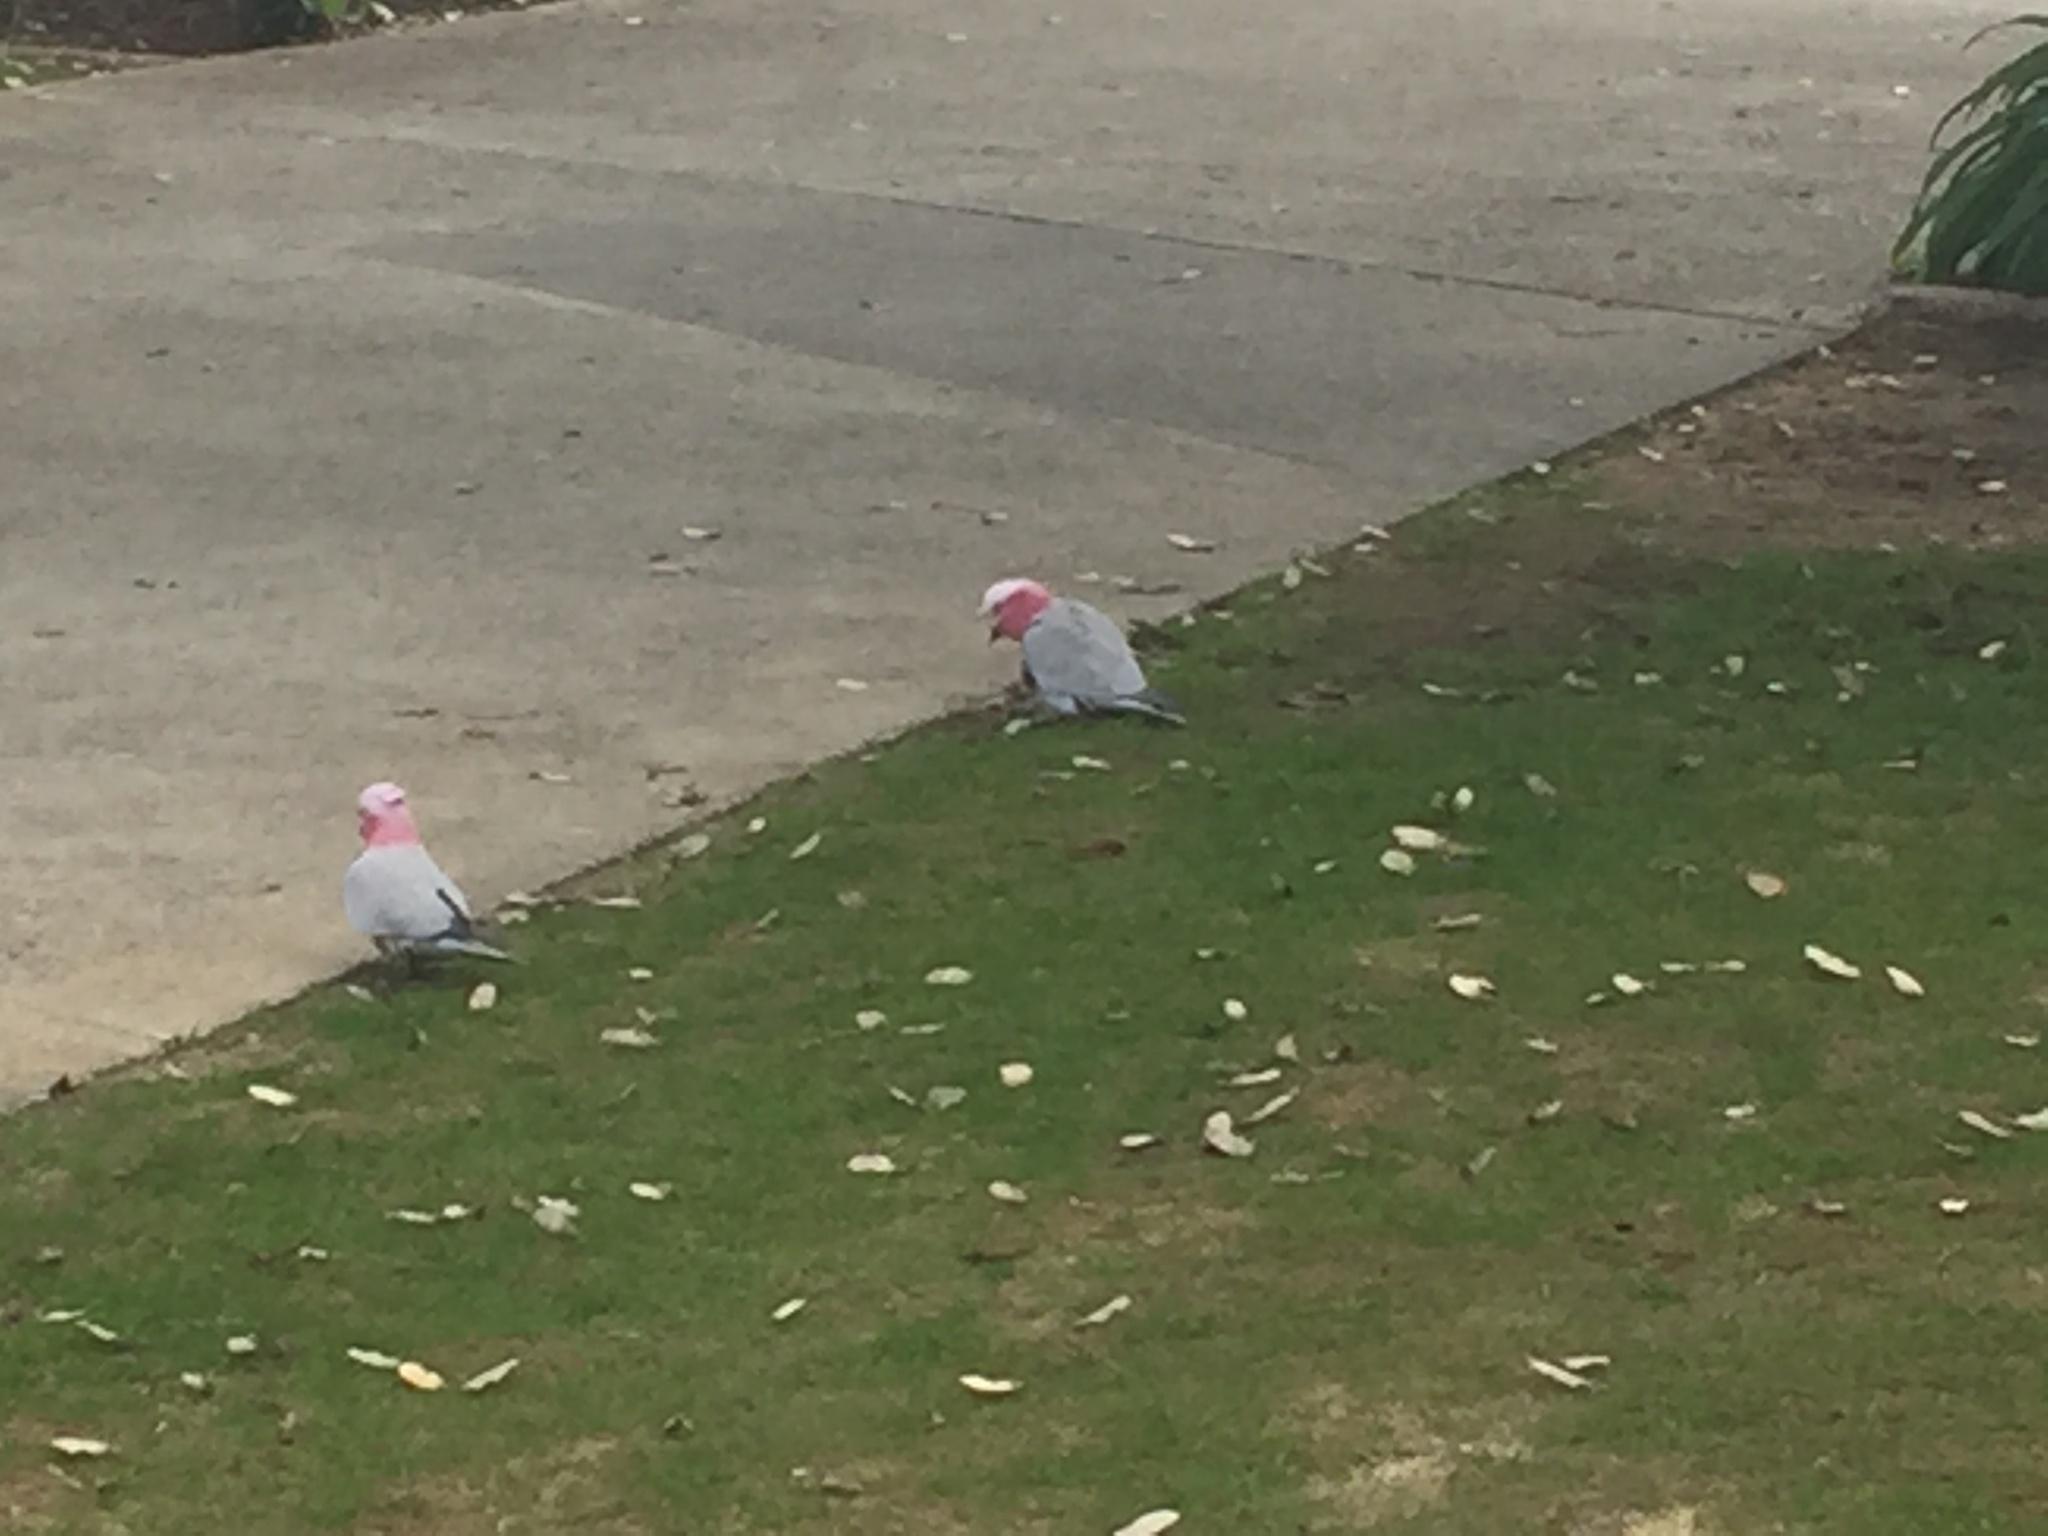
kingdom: Animalia
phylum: Chordata
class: Aves
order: Psittaciformes
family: Psittacidae
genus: Eolophus
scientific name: Eolophus roseicapilla
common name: Galah
